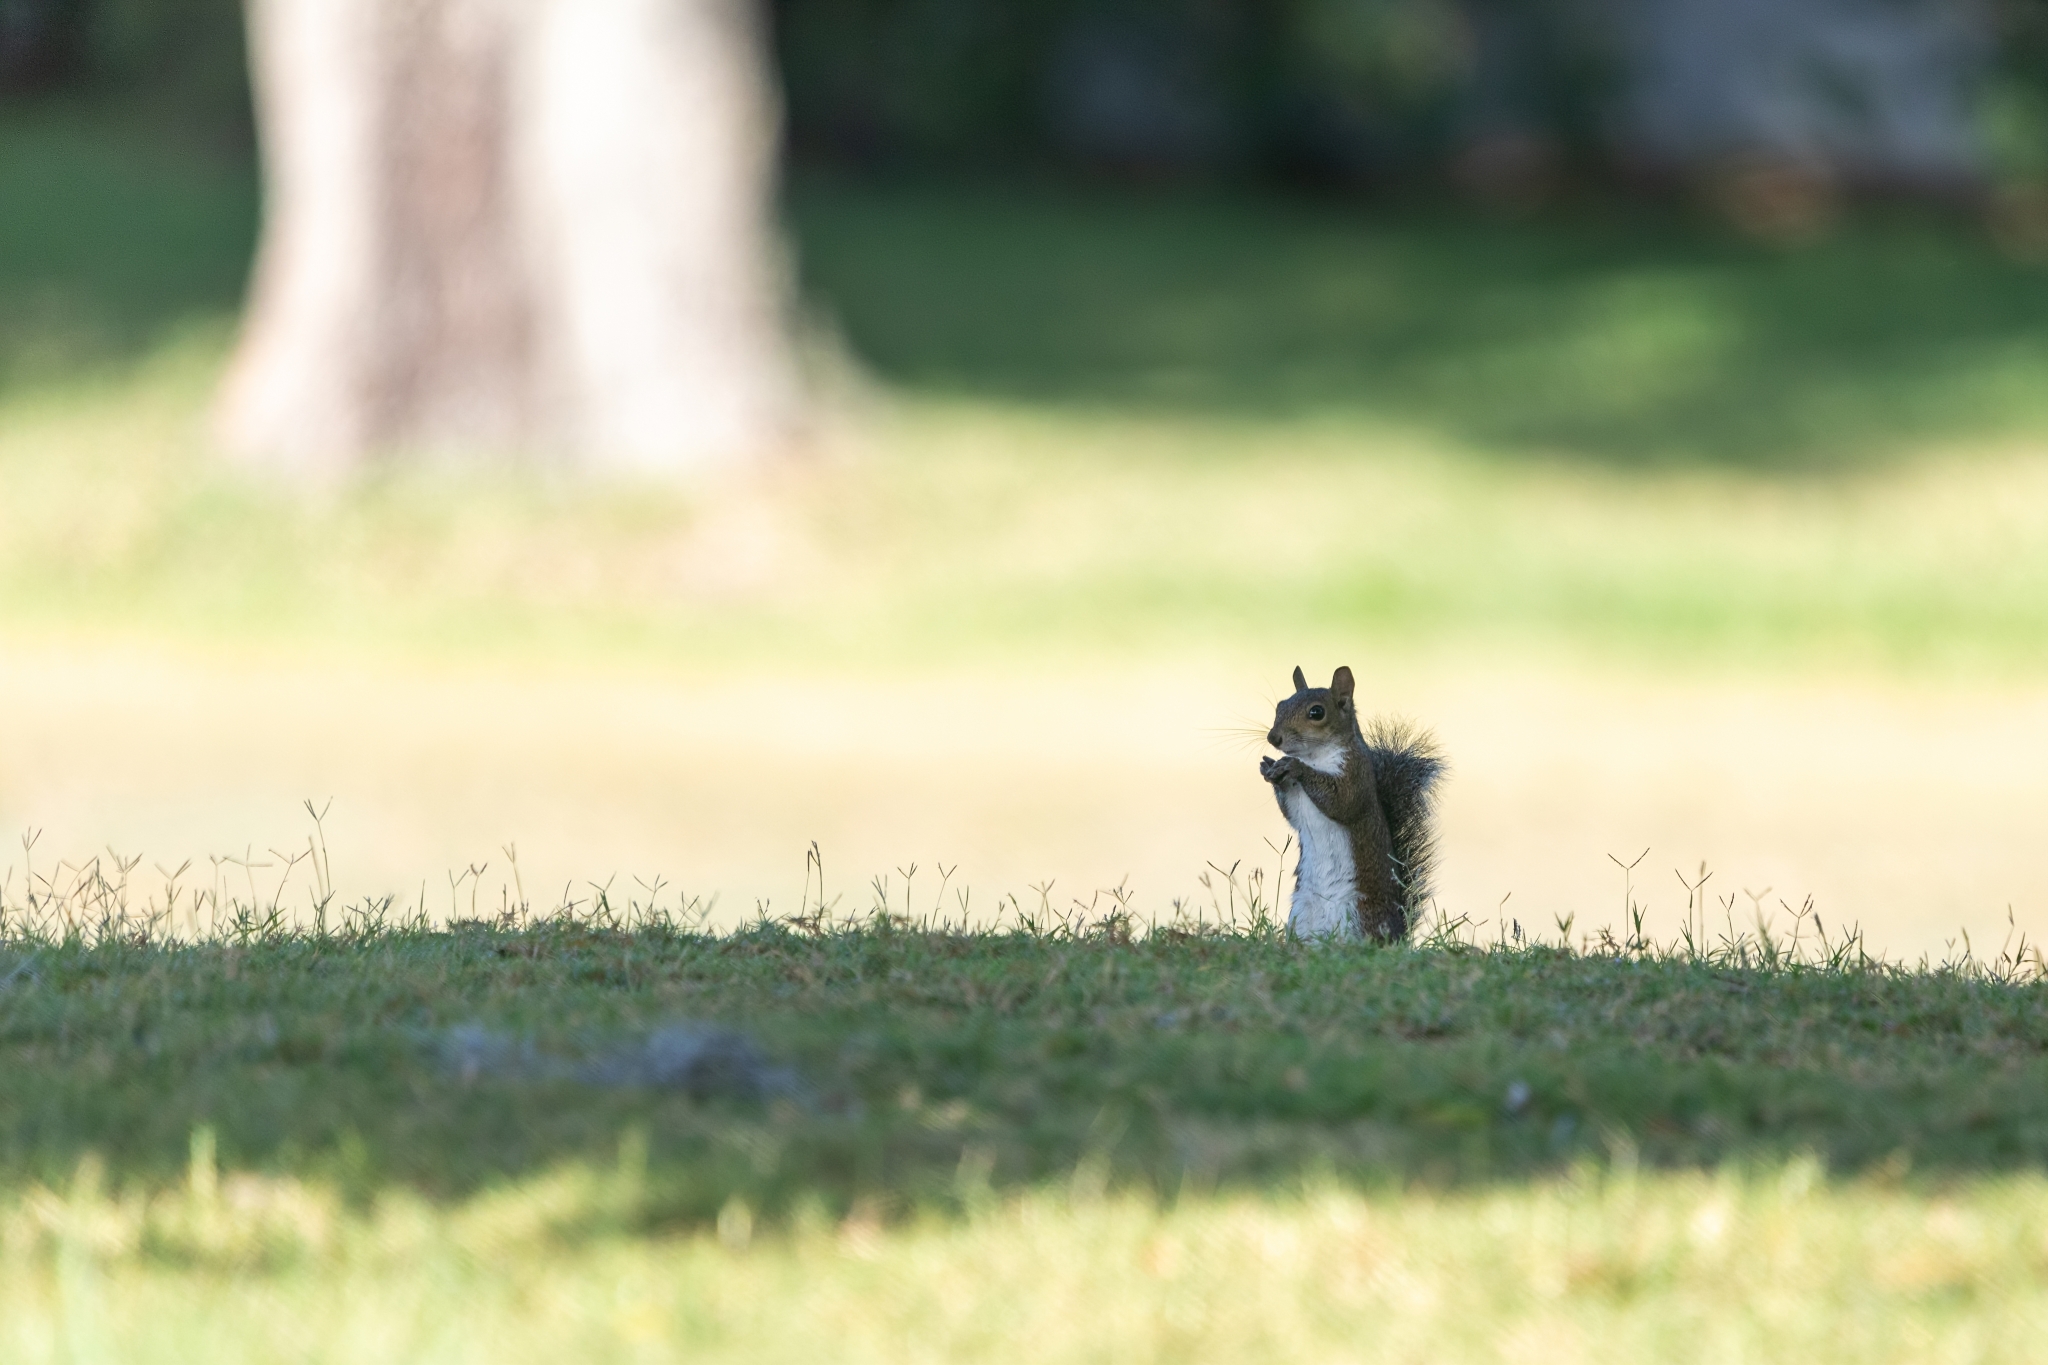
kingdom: Animalia
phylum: Chordata
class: Mammalia
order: Rodentia
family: Sciuridae
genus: Sciurus
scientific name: Sciurus carolinensis
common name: Eastern gray squirrel
